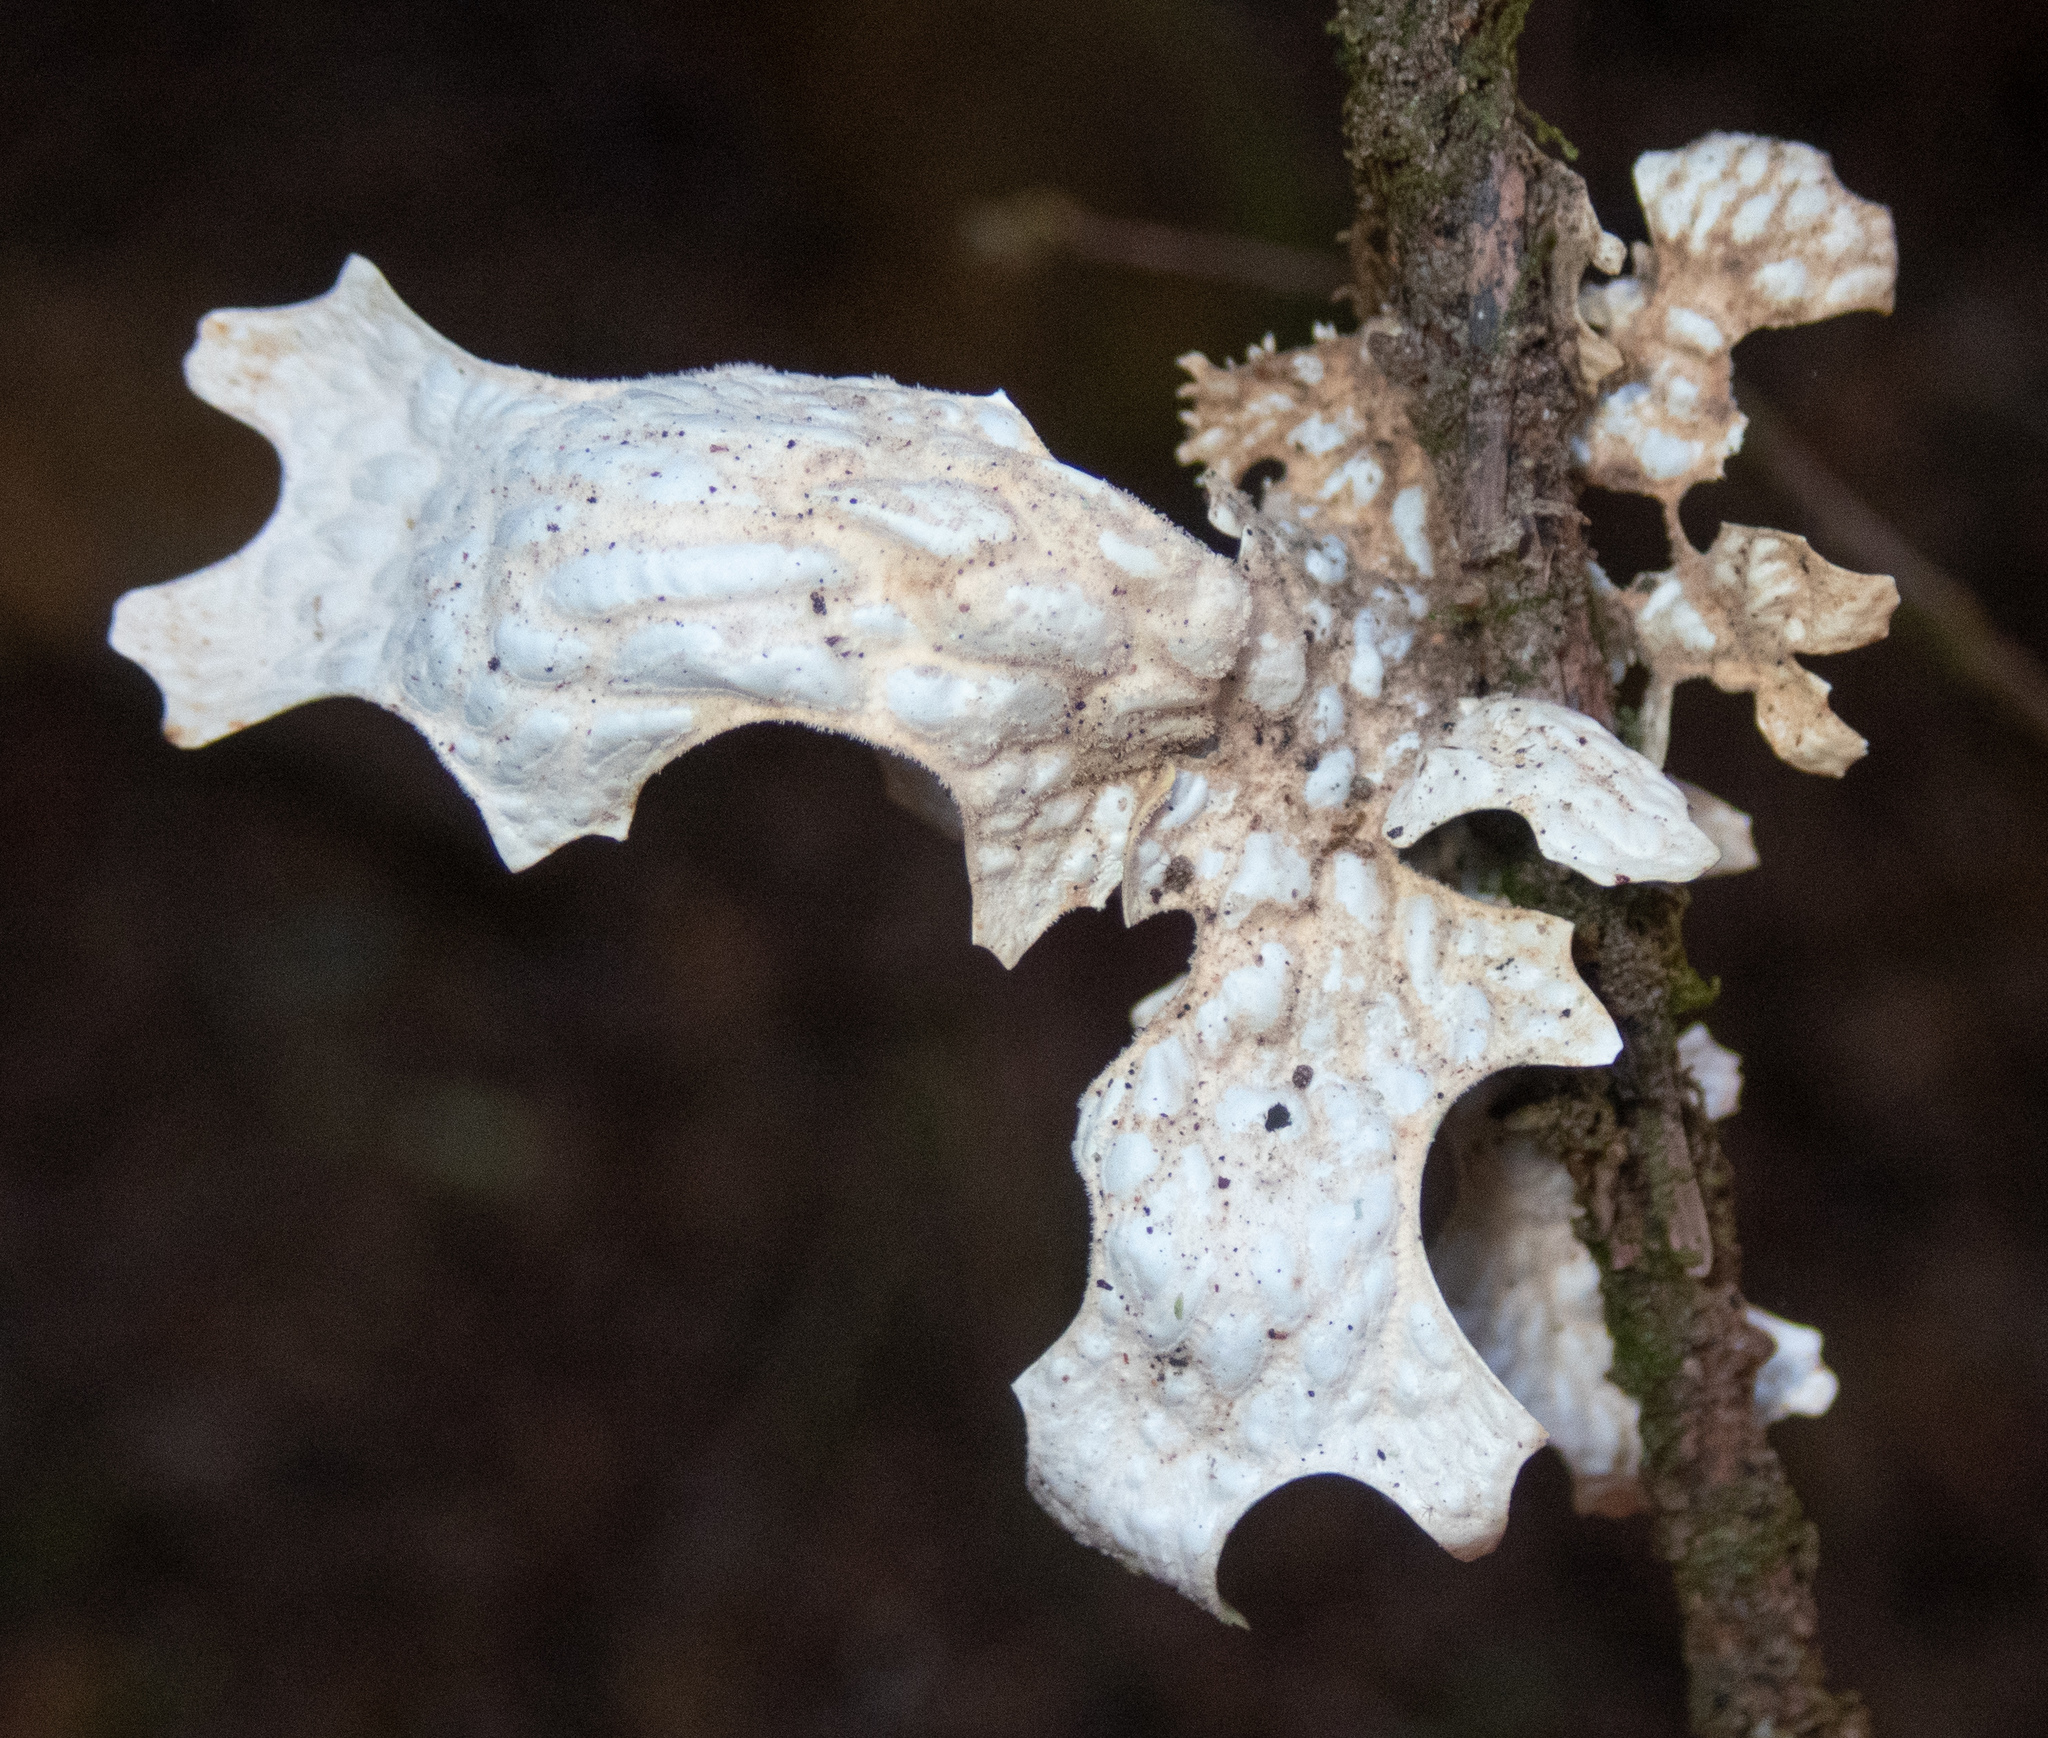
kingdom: Fungi
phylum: Ascomycota
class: Lecanoromycetes
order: Peltigerales
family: Lobariaceae
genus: Lobaria
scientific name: Lobaria pulmonaria
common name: Lungwort
